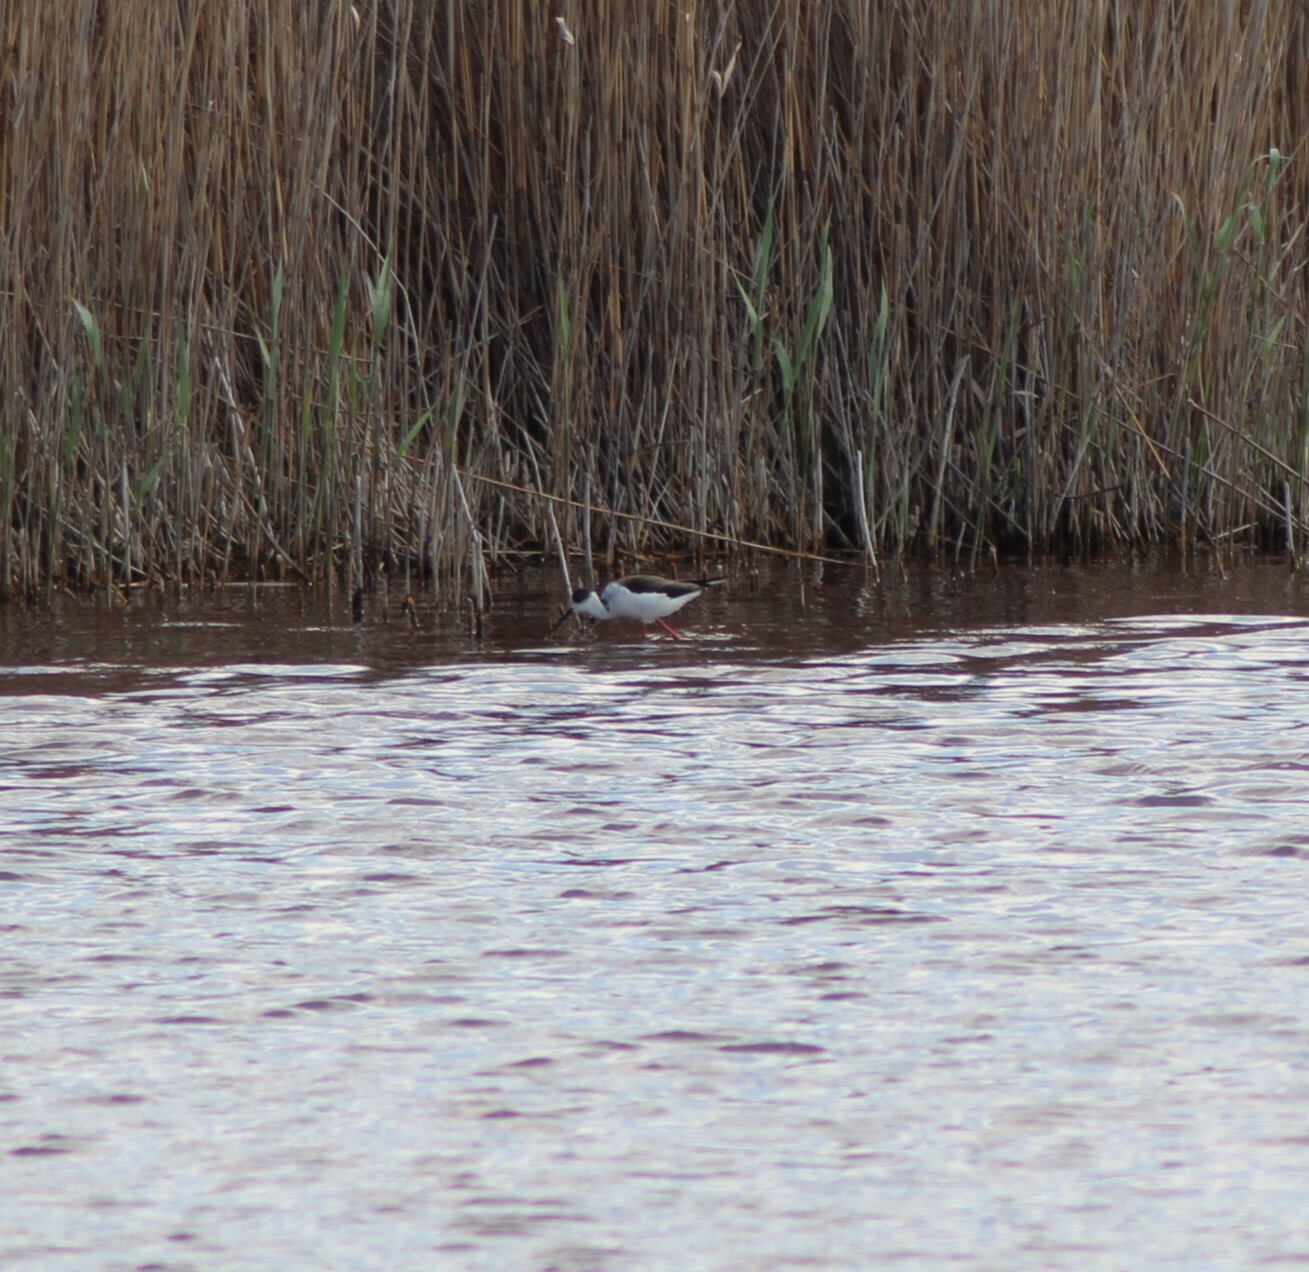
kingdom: Animalia
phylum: Chordata
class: Aves
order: Charadriiformes
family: Recurvirostridae
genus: Himantopus
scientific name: Himantopus himantopus
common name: Black-winged stilt
